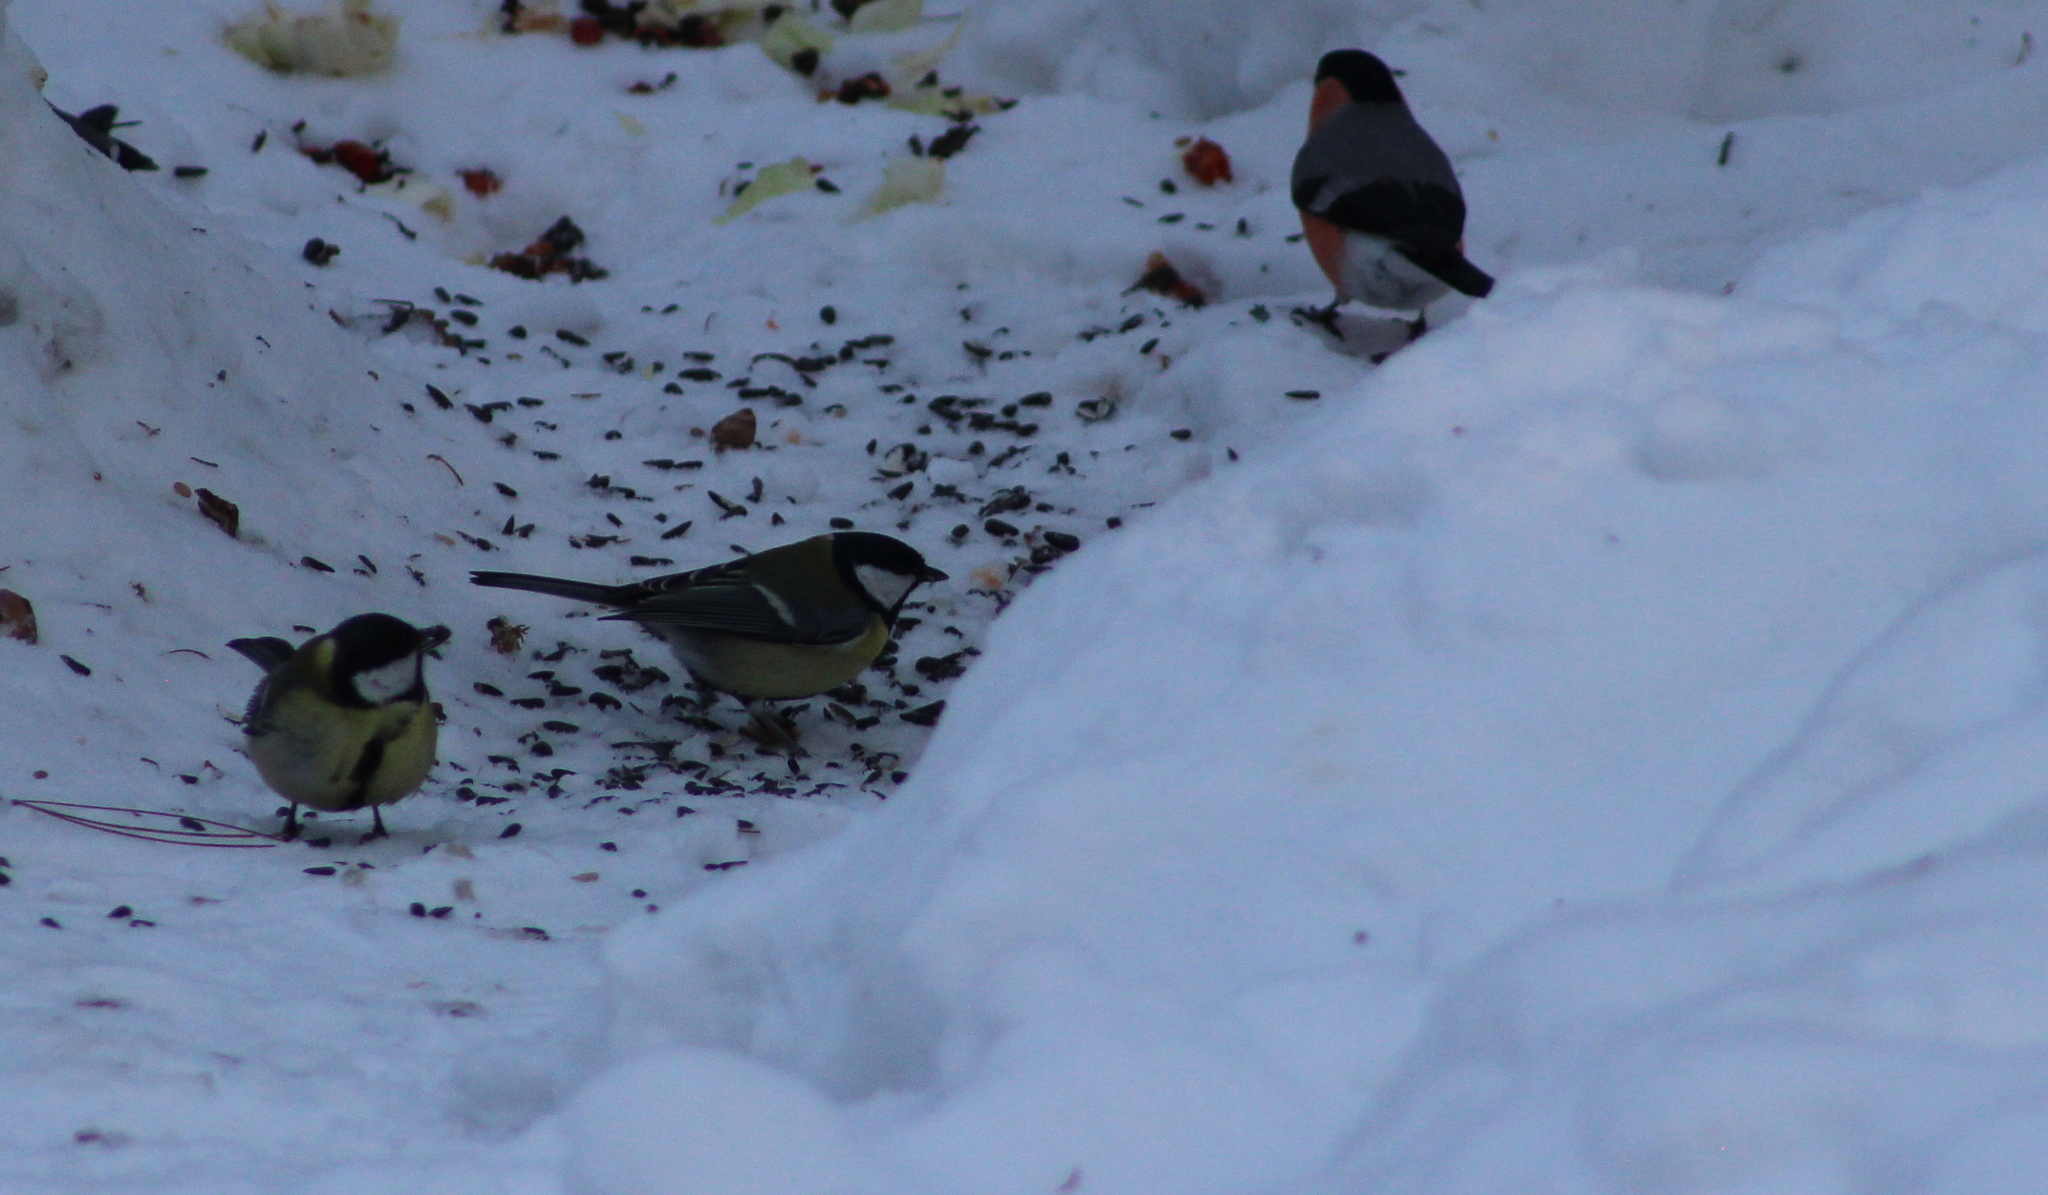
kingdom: Animalia
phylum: Chordata
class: Aves
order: Passeriformes
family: Paridae
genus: Parus
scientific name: Parus major
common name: Great tit
